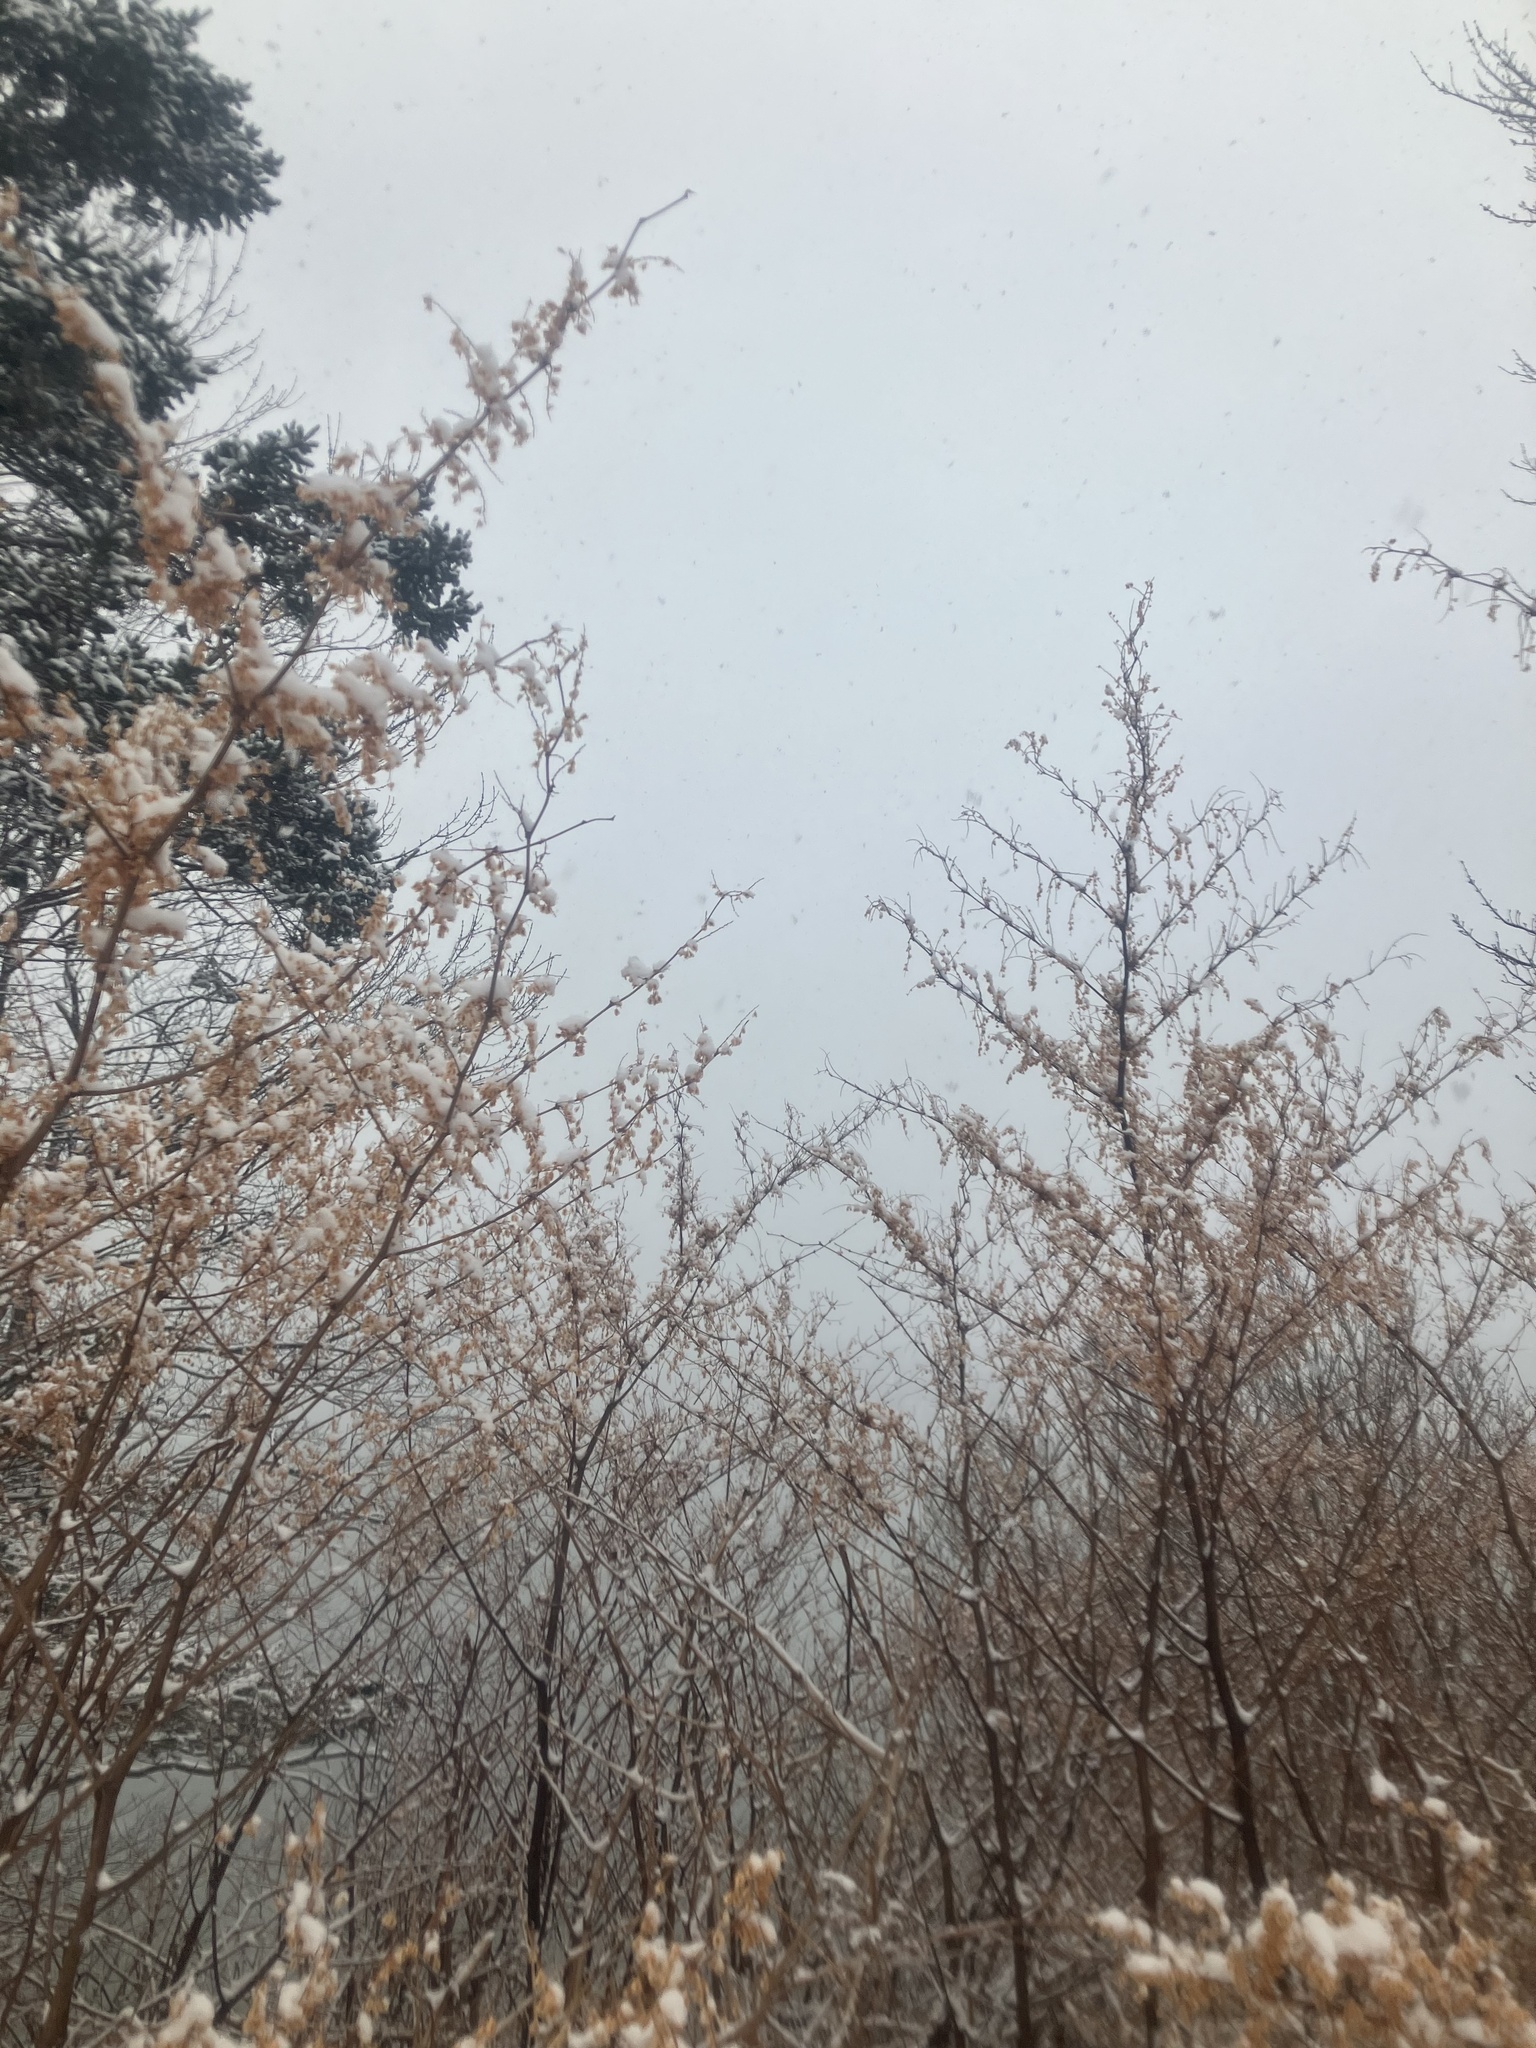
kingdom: Plantae
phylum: Tracheophyta
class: Magnoliopsida
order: Caryophyllales
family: Polygonaceae
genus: Reynoutria
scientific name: Reynoutria japonica
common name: Japanese knotweed
